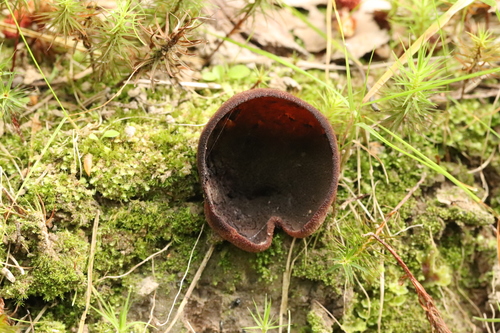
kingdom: Fungi
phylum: Ascomycota
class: Pezizomycetes
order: Pezizales
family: Pezizaceae
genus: Legaliana
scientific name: Legaliana
